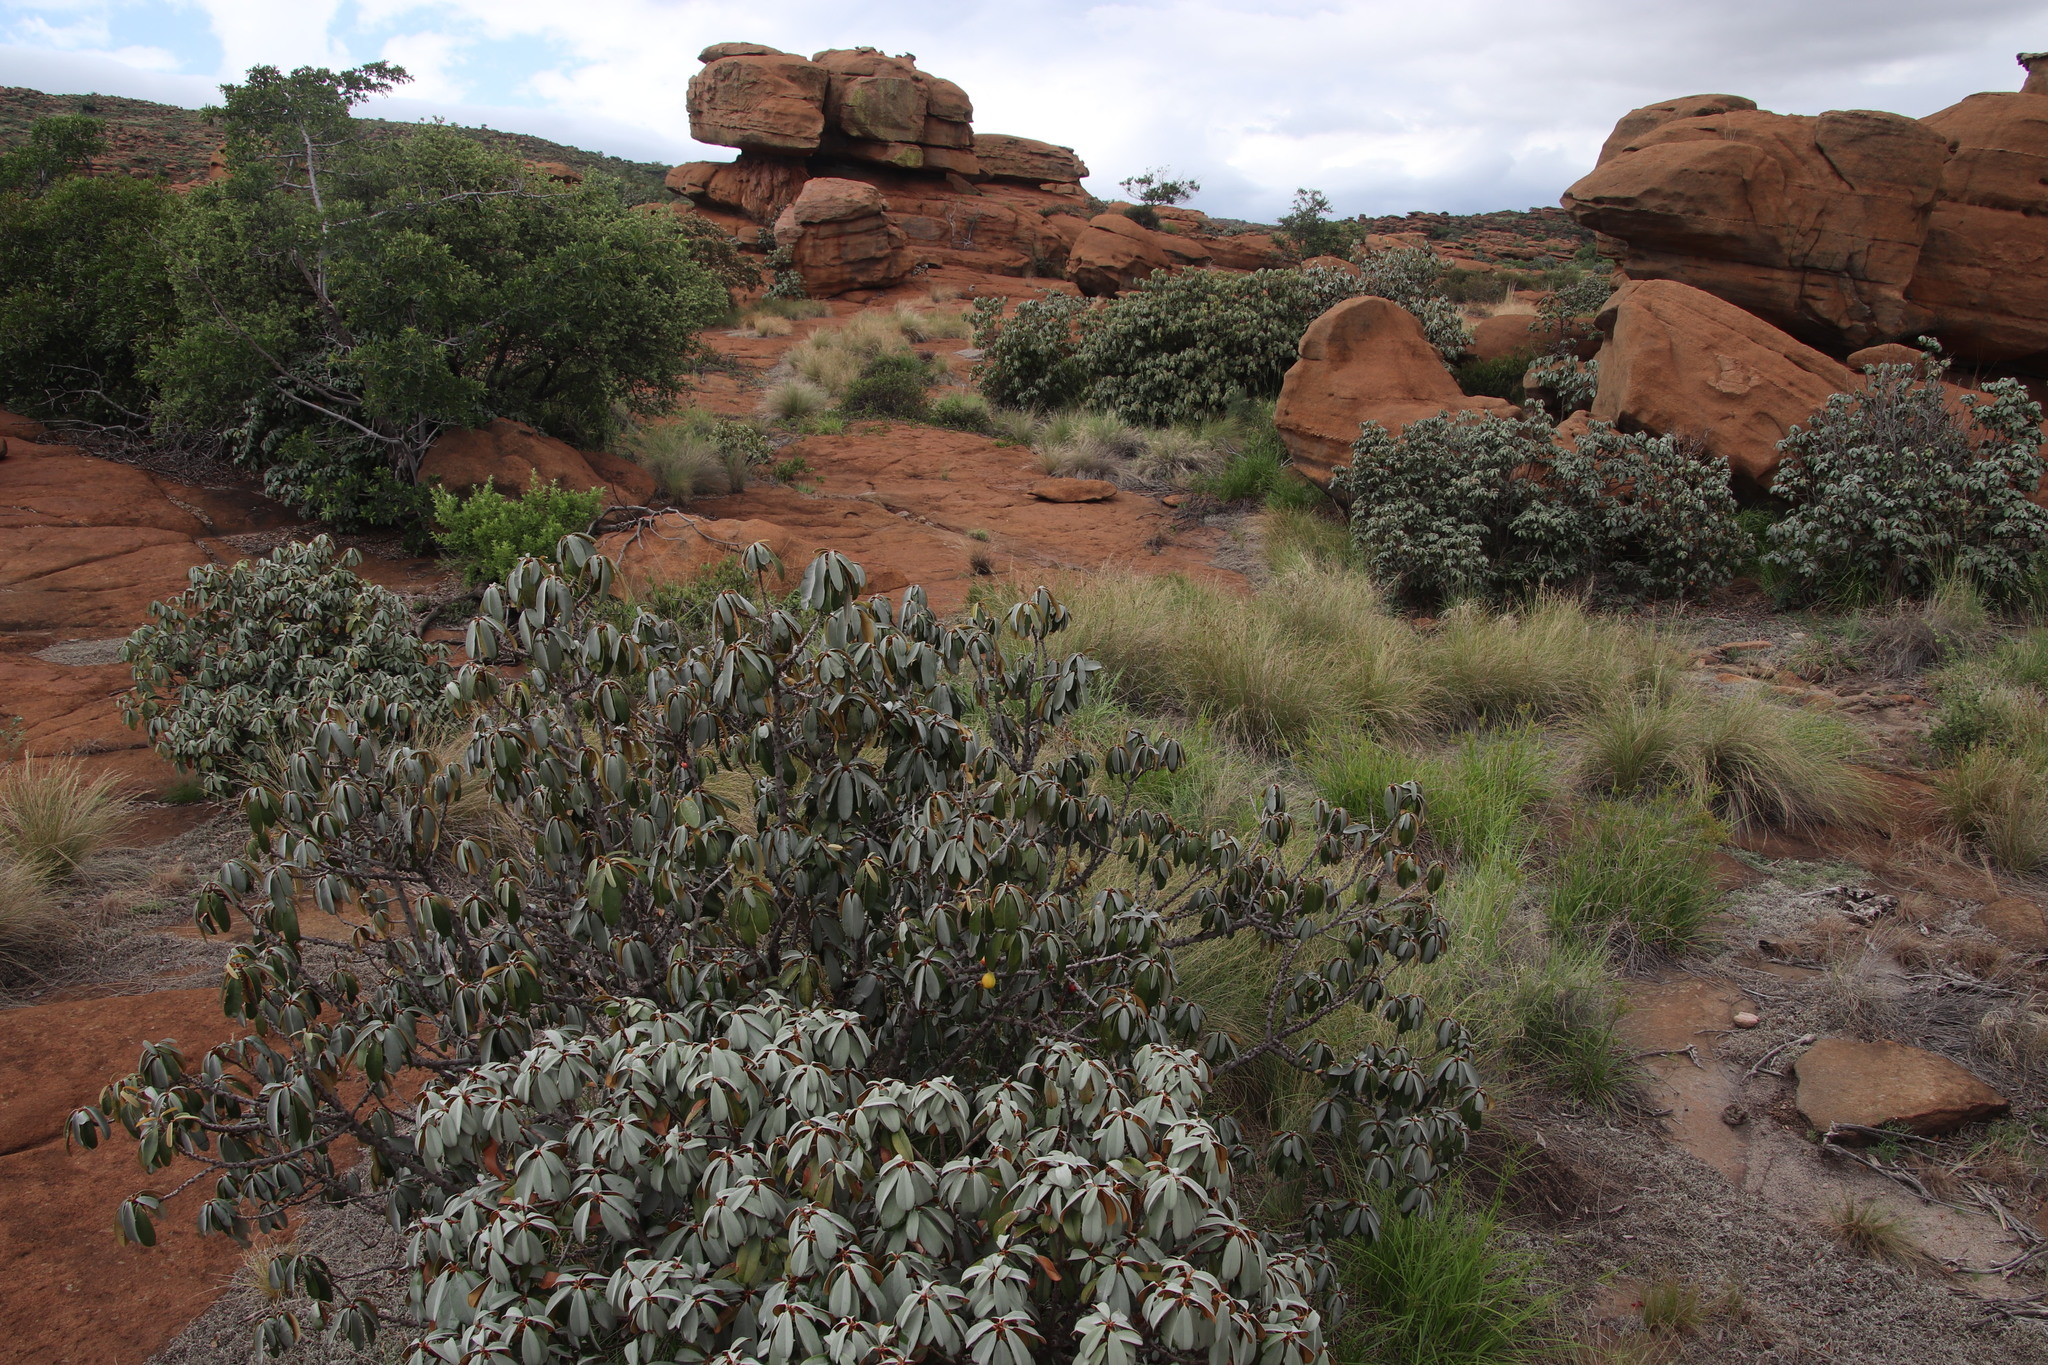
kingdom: Plantae
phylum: Tracheophyta
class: Magnoliopsida
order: Ericales
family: Sapotaceae
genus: Englerophytum
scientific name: Englerophytum magalismontanum
